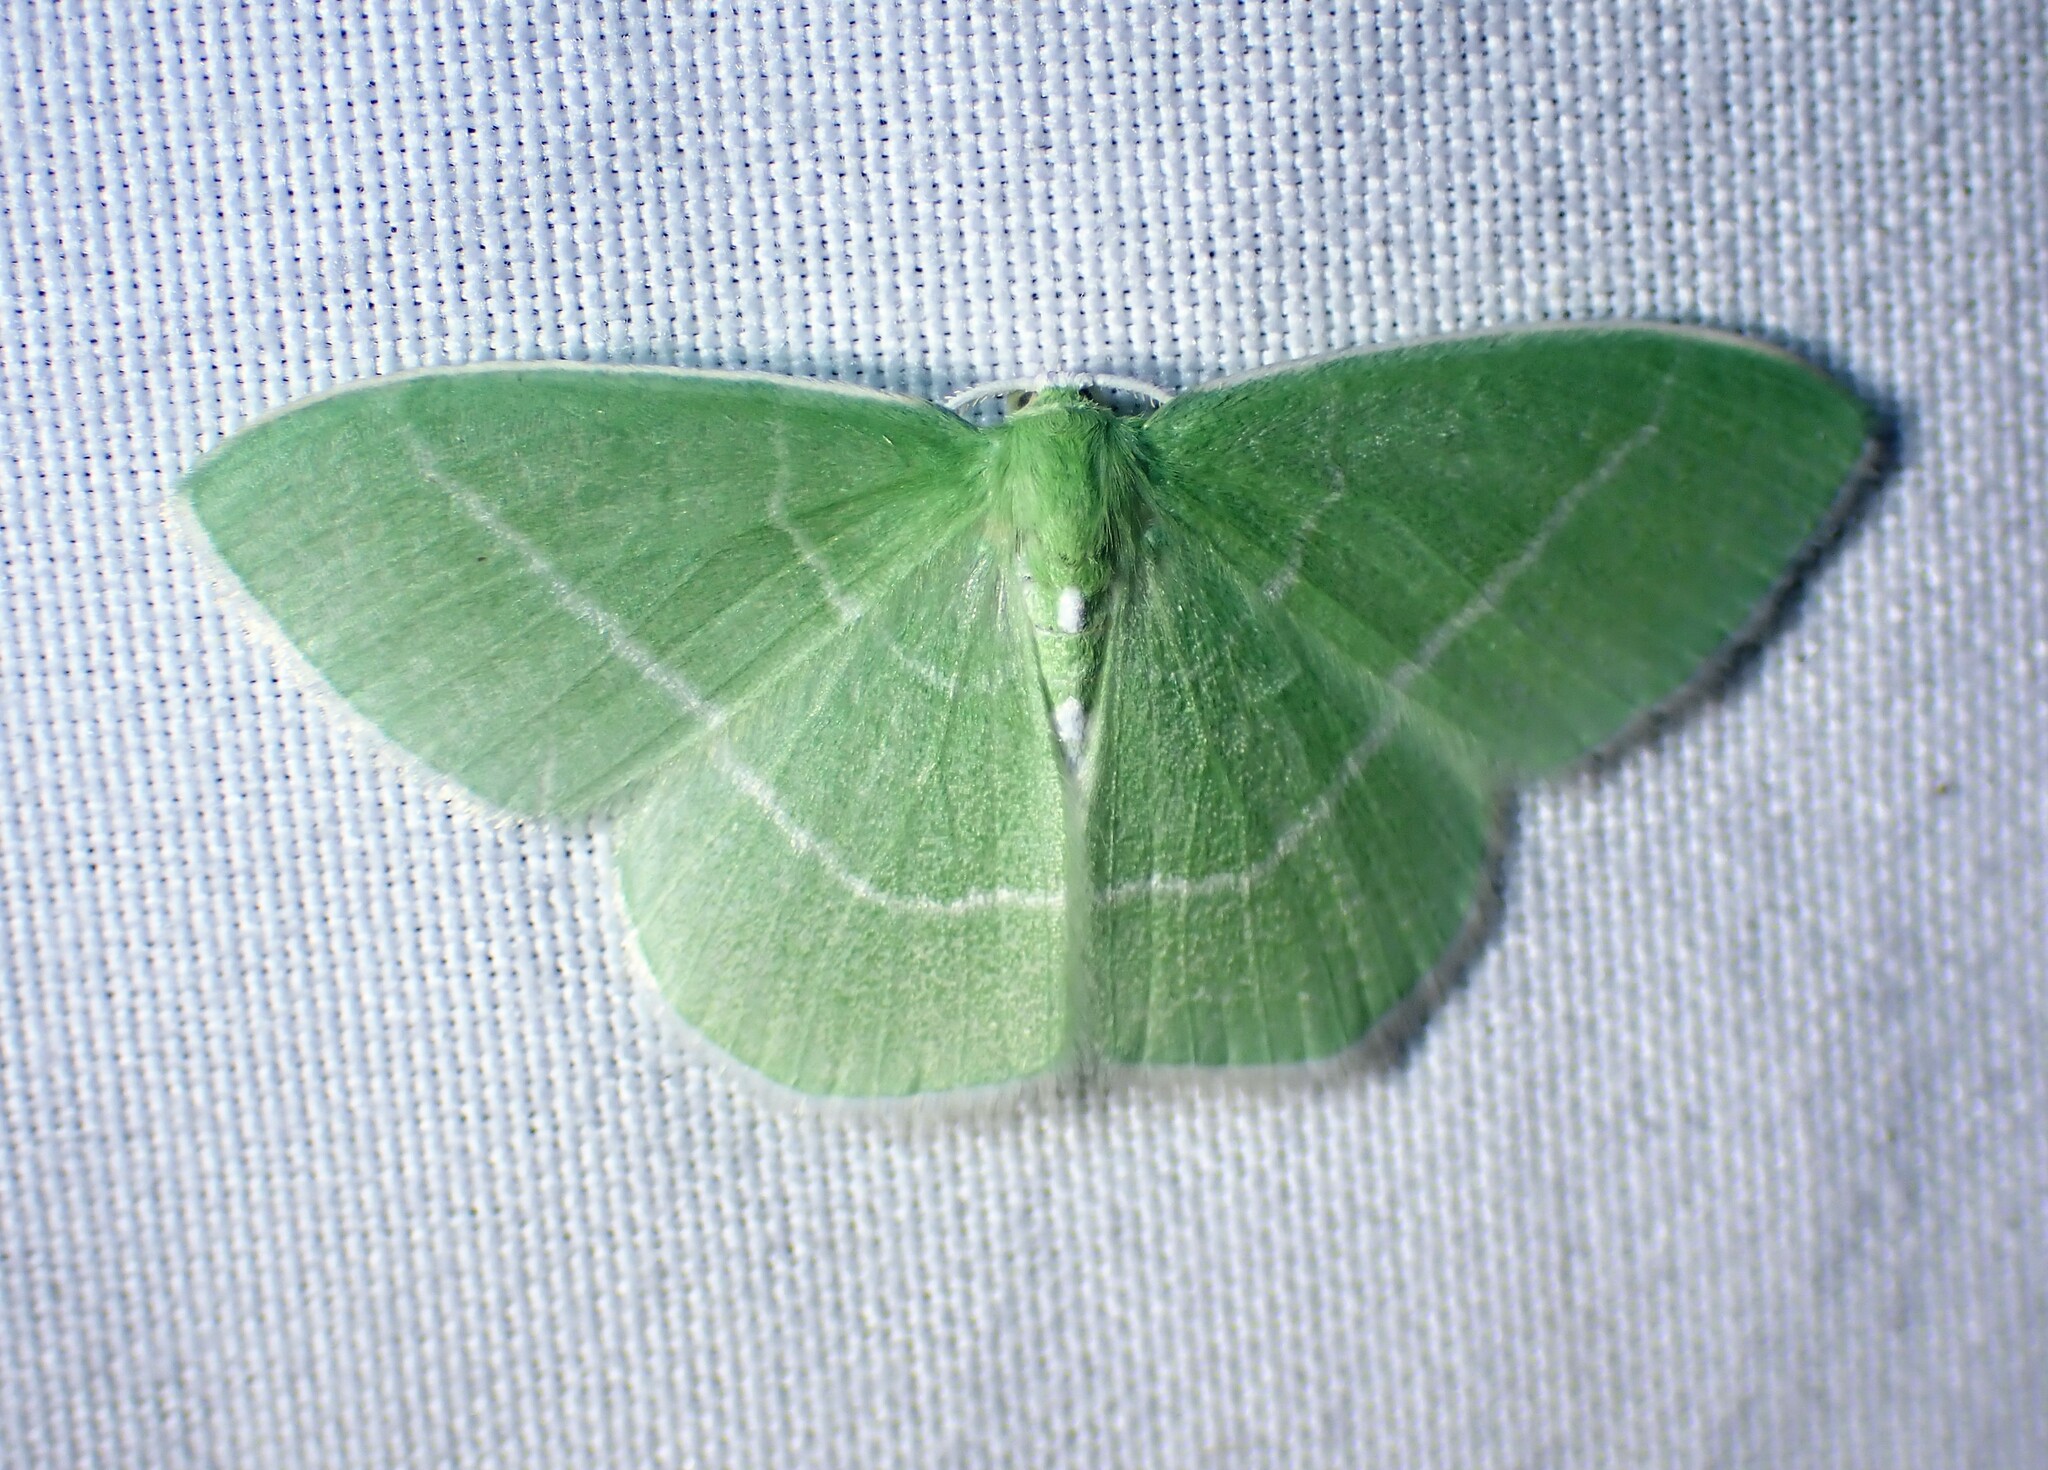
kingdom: Animalia
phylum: Arthropoda
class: Insecta
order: Lepidoptera
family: Geometridae
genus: Nemoria
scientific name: Nemoria mimosaria
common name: White-fringed emerald
